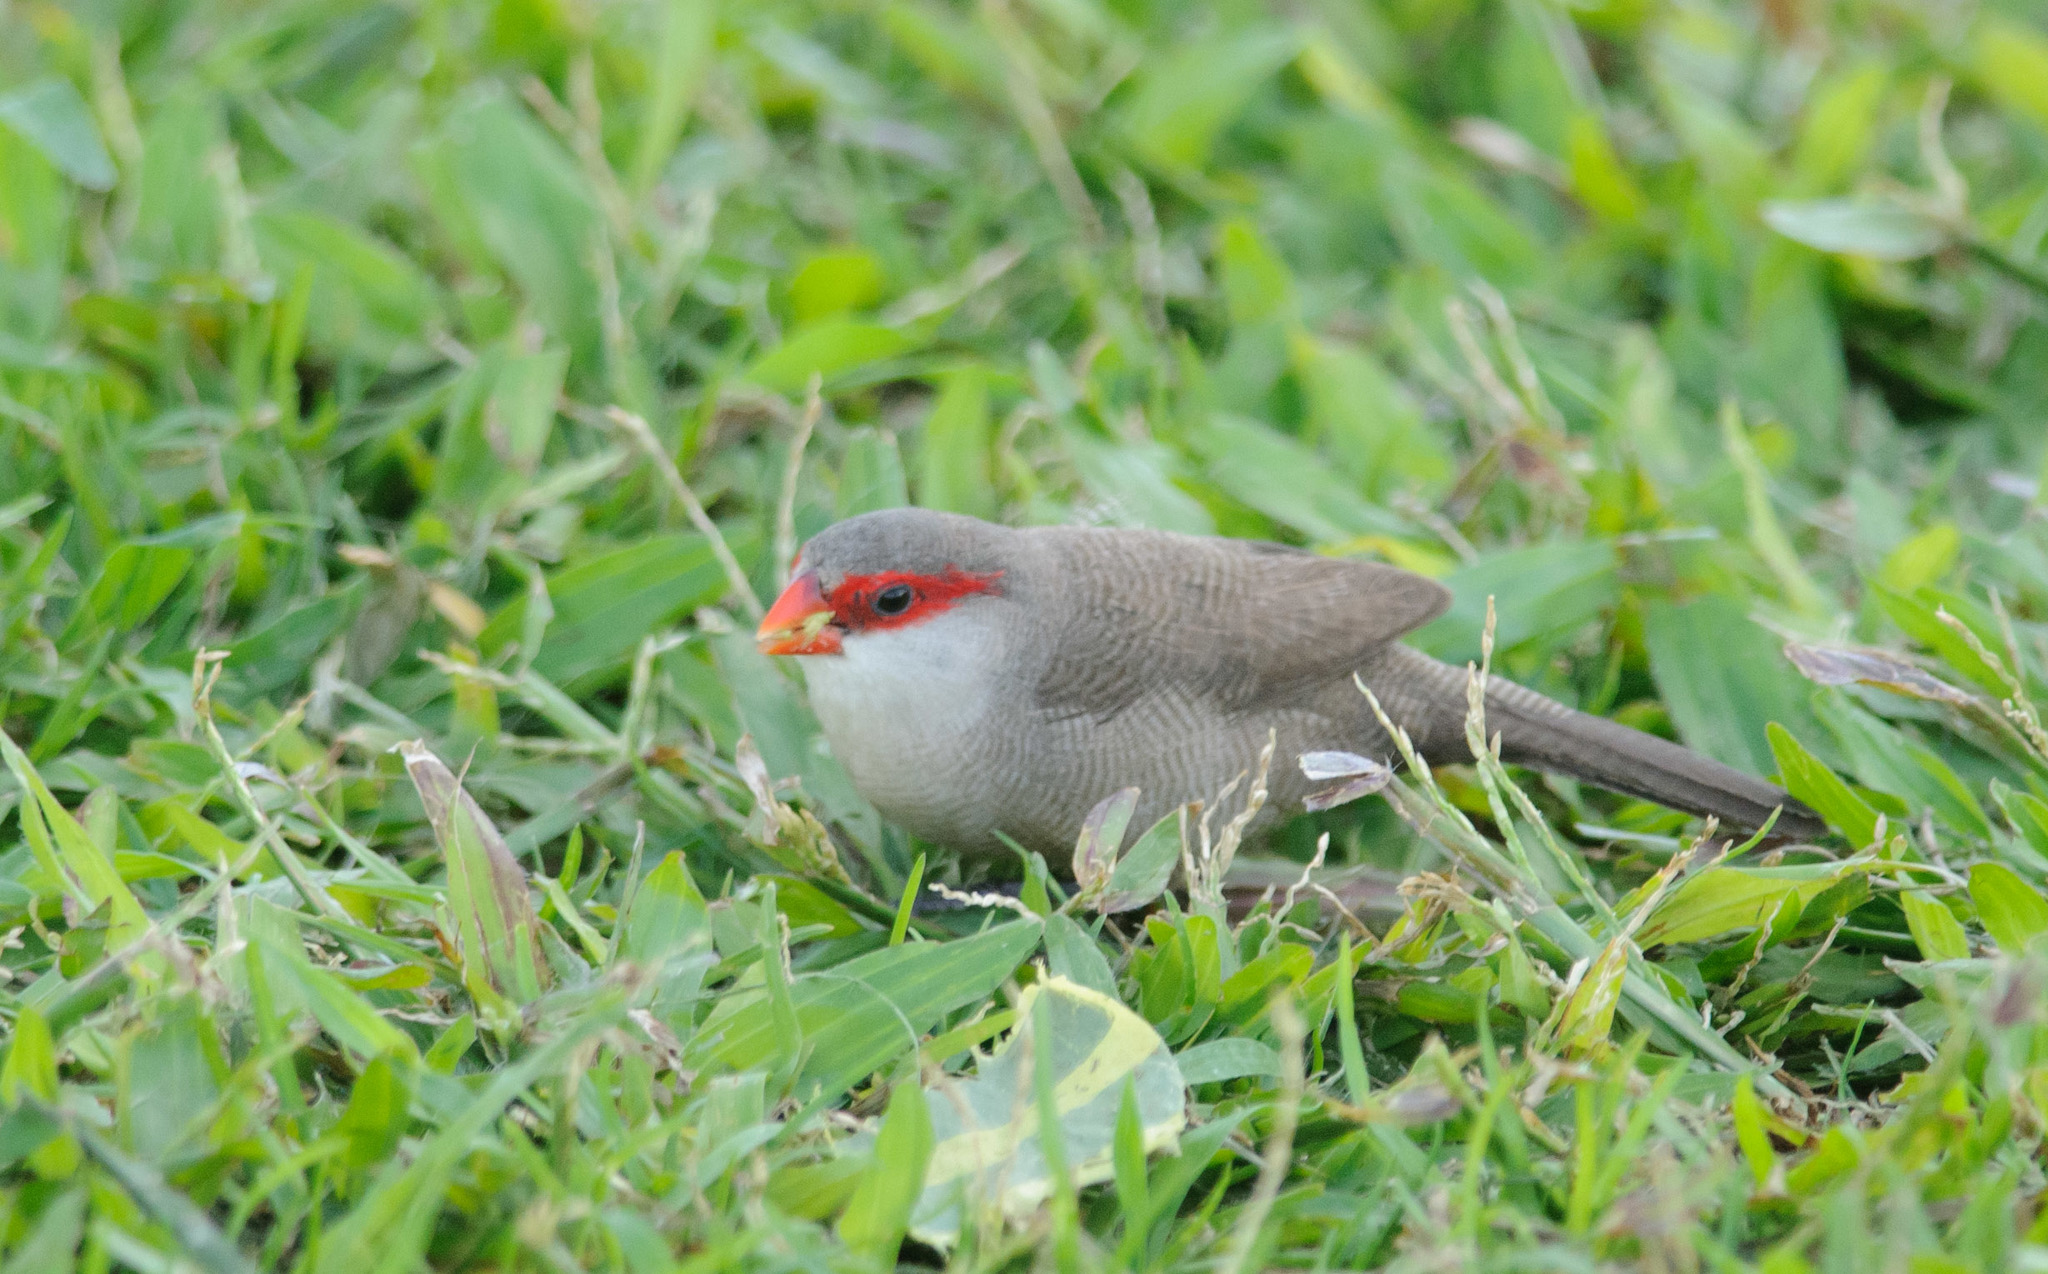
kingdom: Animalia
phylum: Chordata
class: Aves
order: Passeriformes
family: Estrildidae
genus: Estrilda
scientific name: Estrilda astrild
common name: Common waxbill
